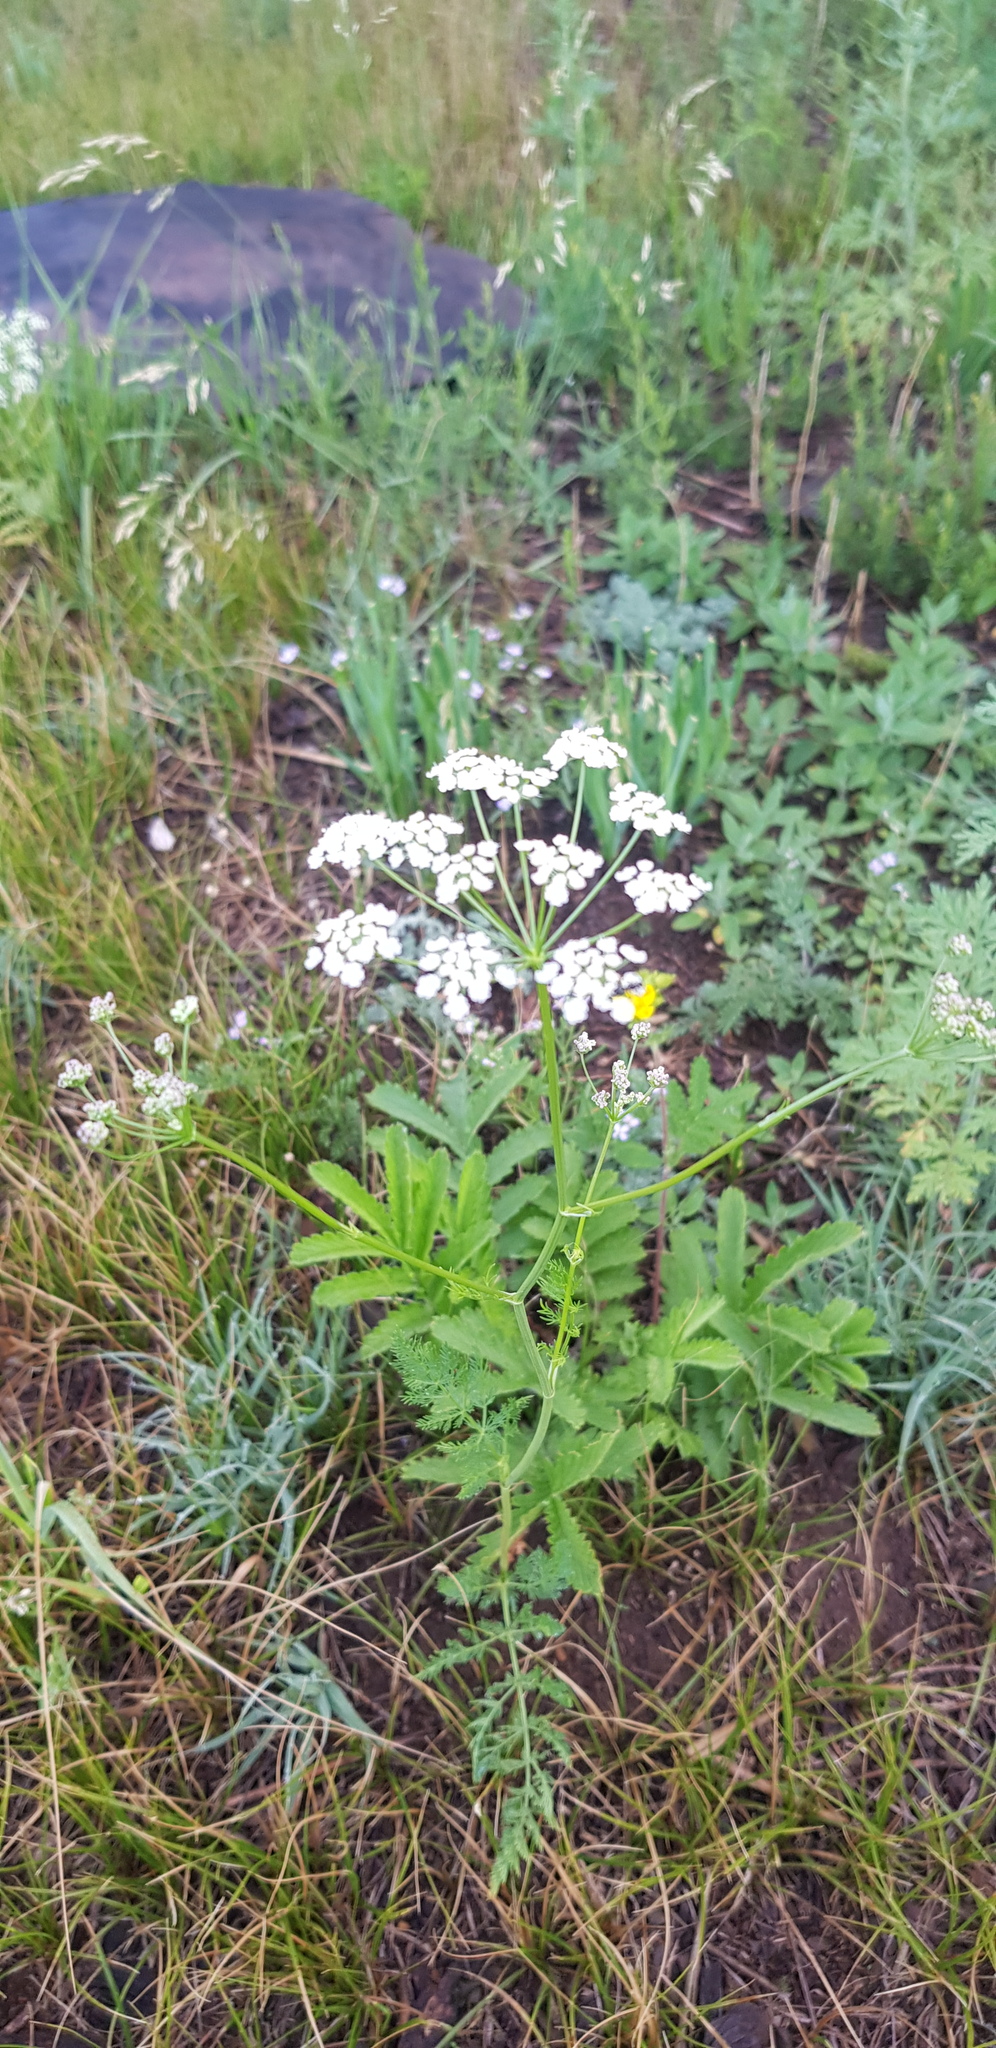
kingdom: Plantae
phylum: Tracheophyta
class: Magnoliopsida
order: Apiales
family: Apiaceae
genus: Carum
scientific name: Carum carvi
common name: Caraway
